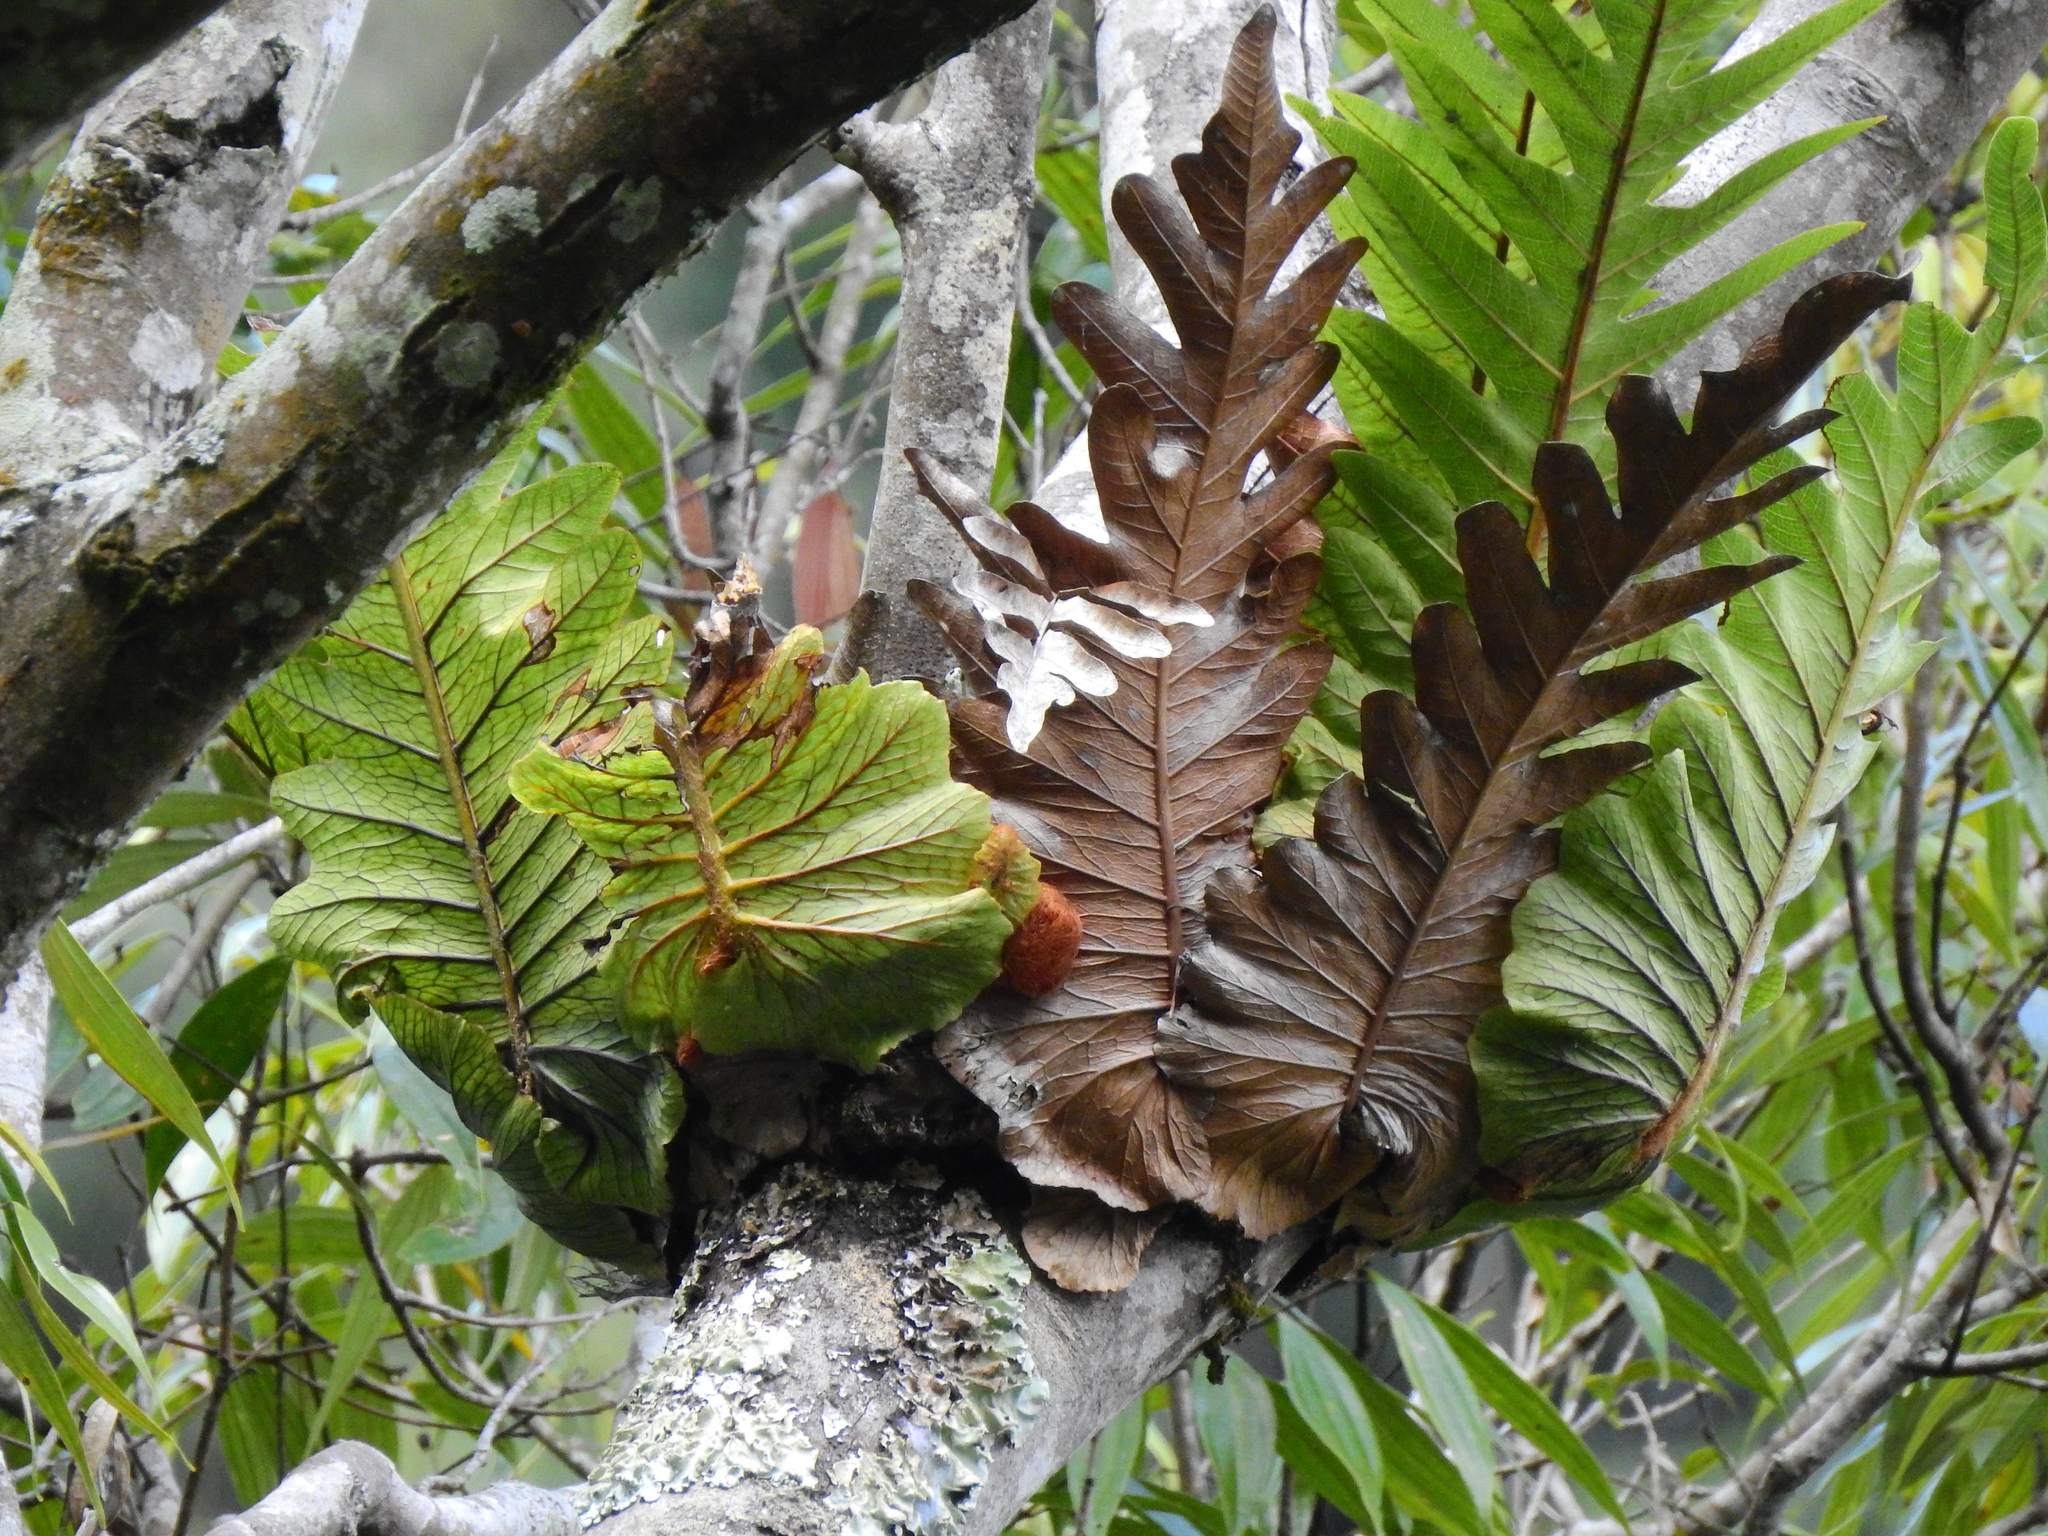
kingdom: Plantae
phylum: Tracheophyta
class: Polypodiopsida
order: Polypodiales
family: Polypodiaceae
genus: Drynaria
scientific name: Drynaria coronans
